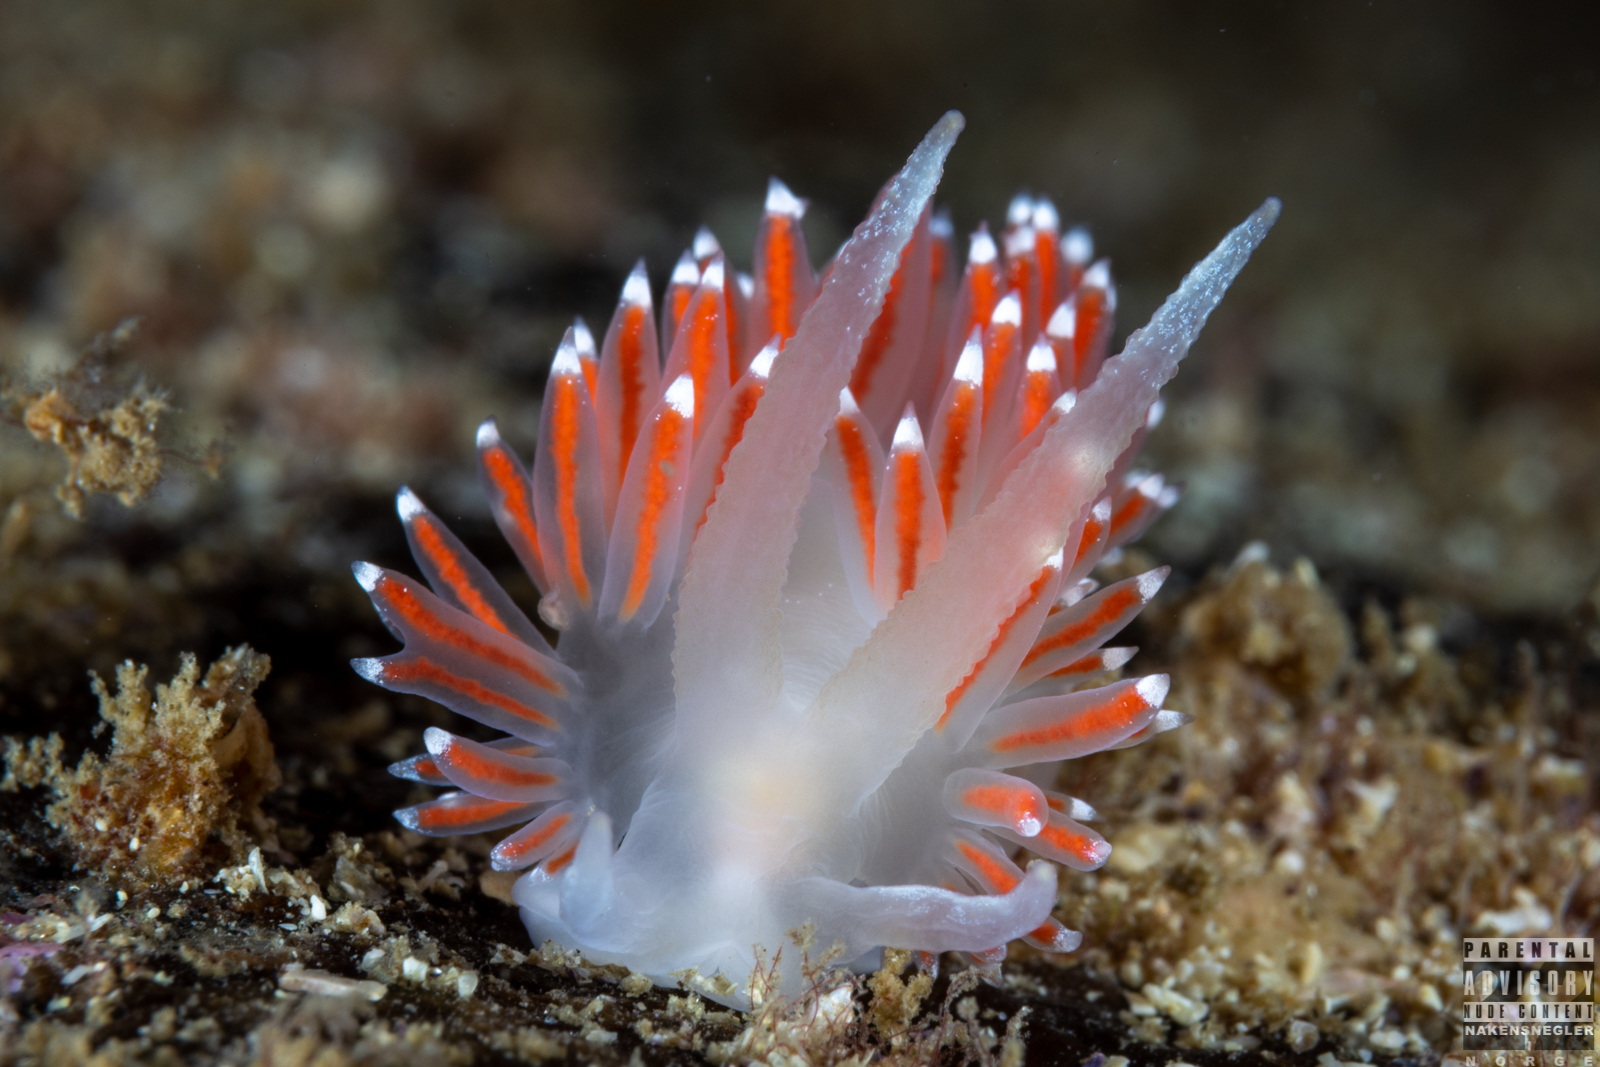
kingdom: Animalia
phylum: Mollusca
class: Gastropoda
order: Nudibranchia
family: Coryphellidae
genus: Coryphella
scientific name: Coryphella browni
